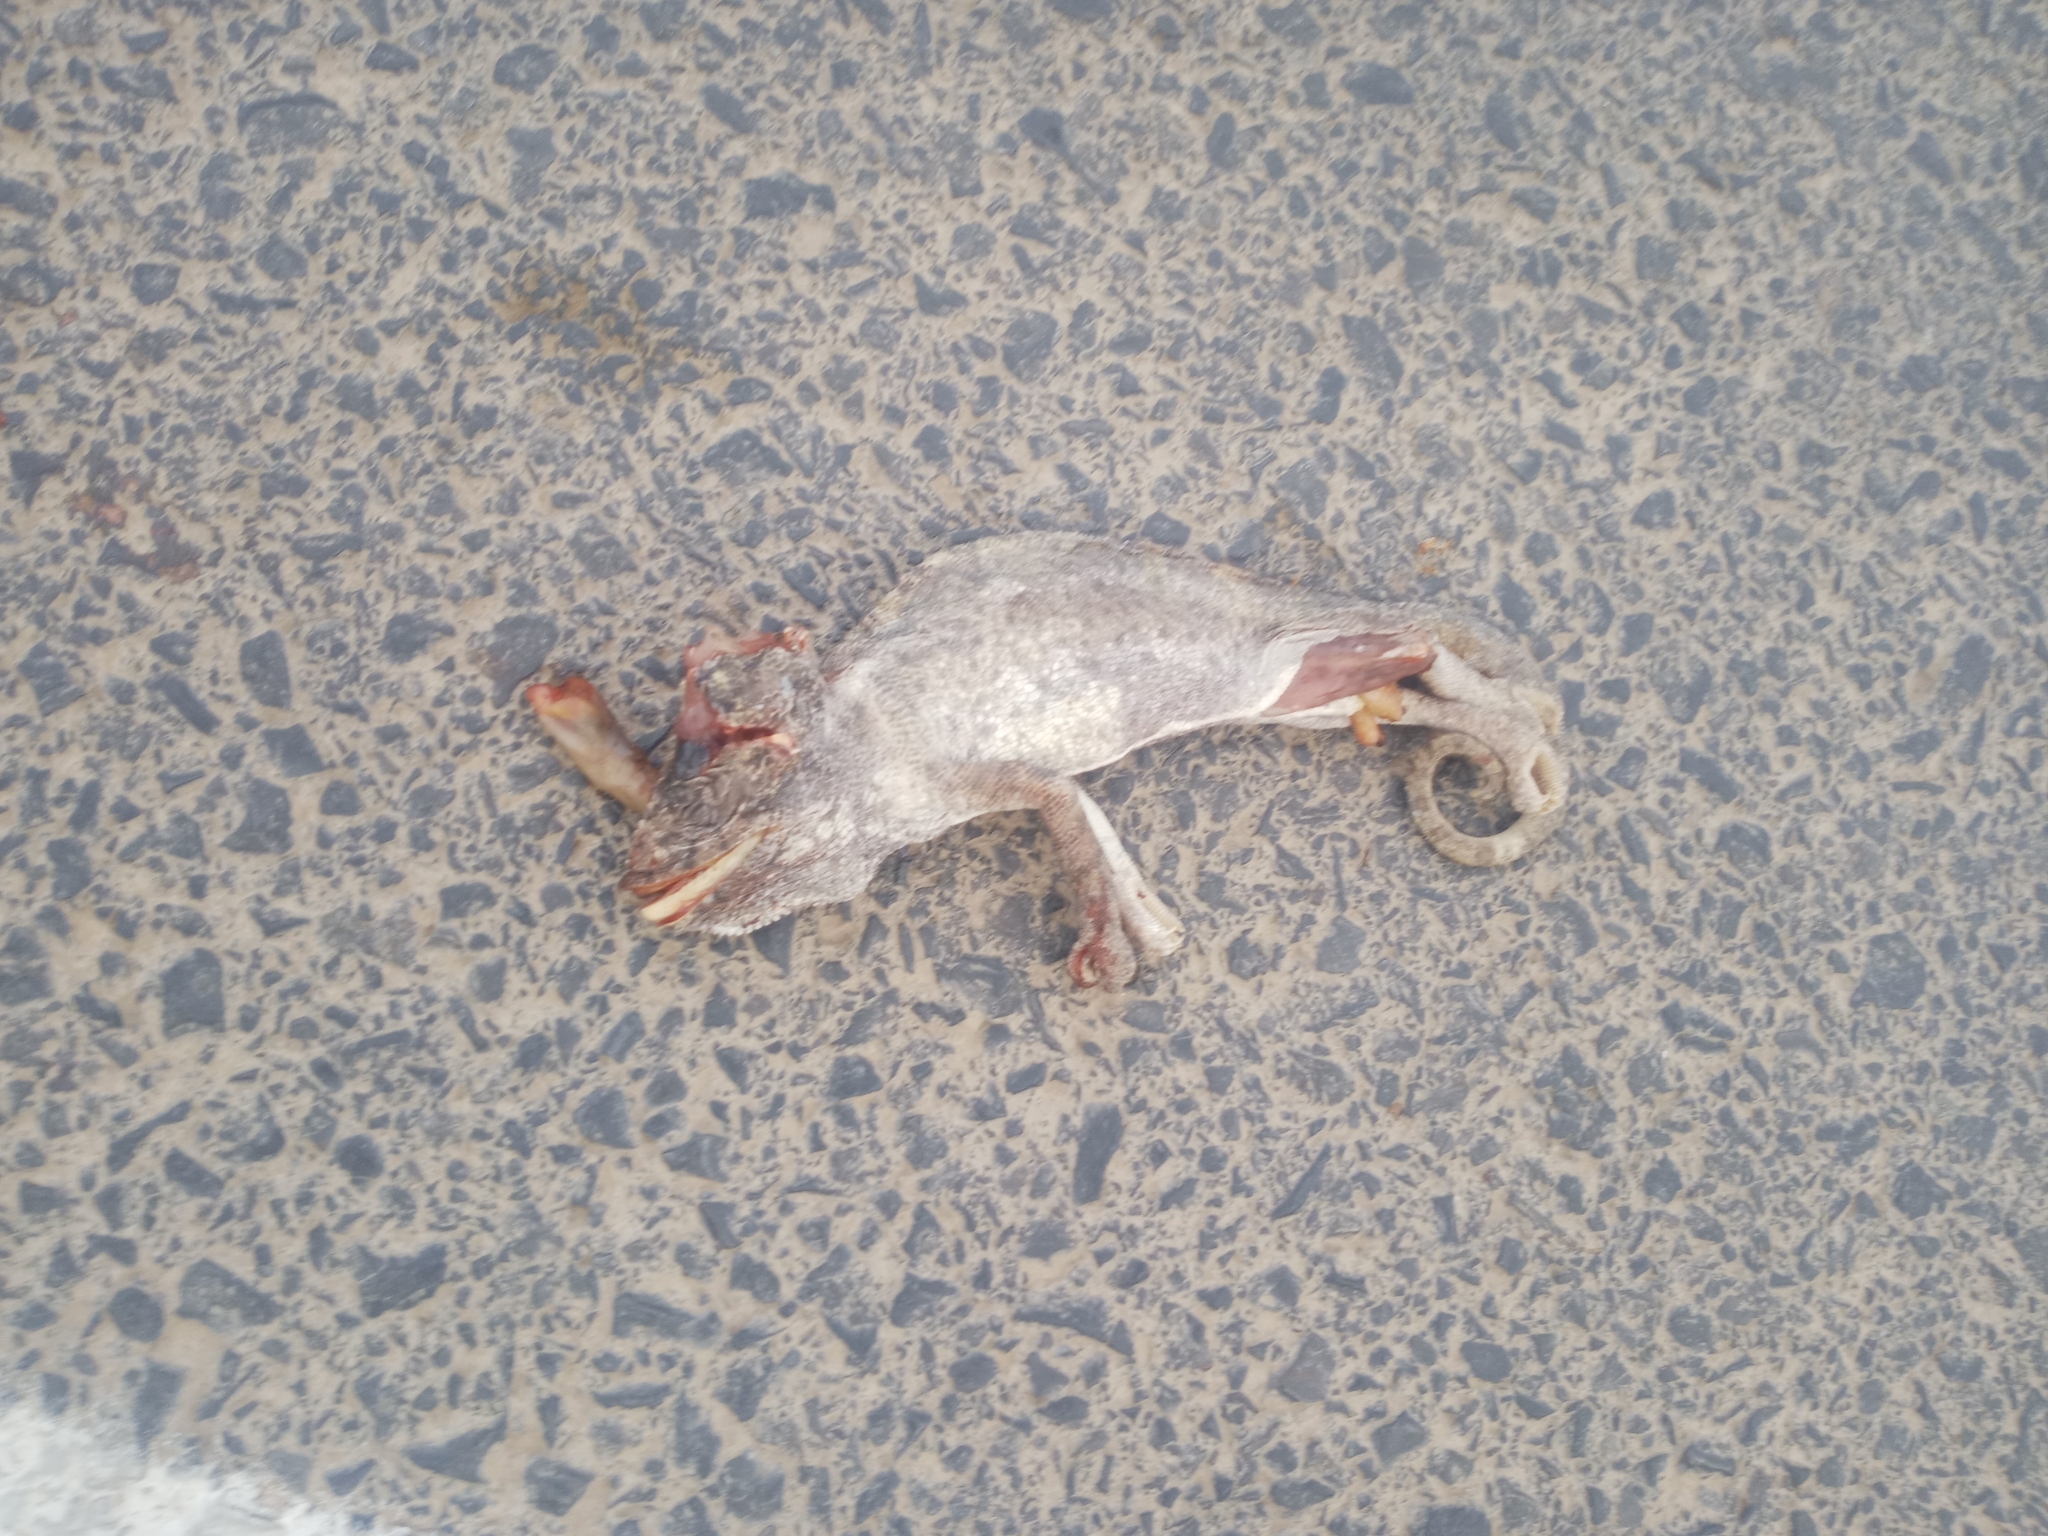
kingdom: Animalia
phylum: Chordata
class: Squamata
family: Chamaeleonidae
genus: Chamaeleo
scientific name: Chamaeleo chamaeleon
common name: Mediterranean chameleon
